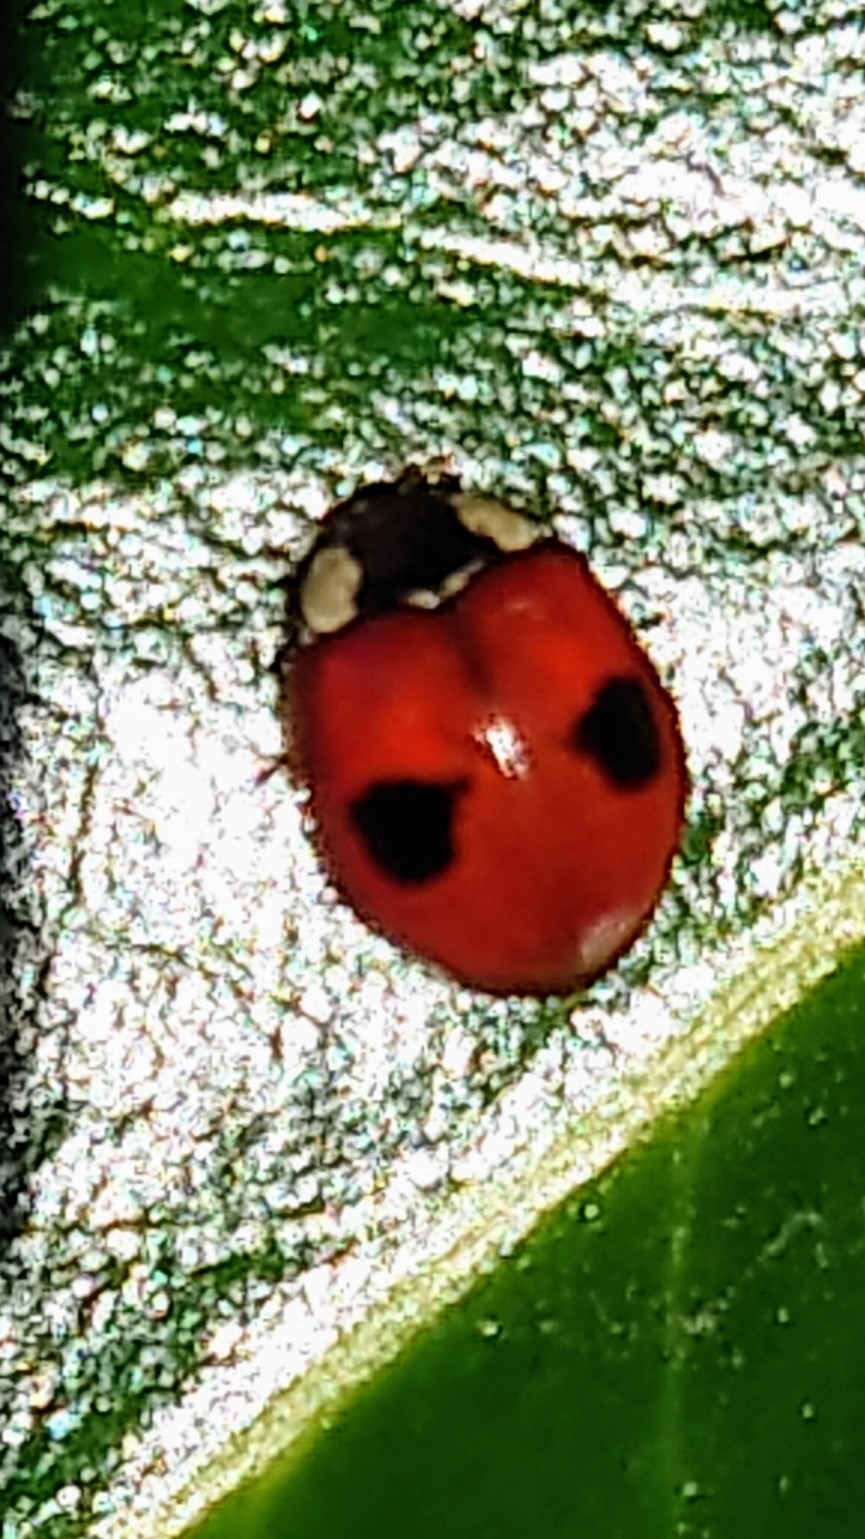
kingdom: Animalia
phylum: Arthropoda
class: Insecta
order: Coleoptera
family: Coccinellidae
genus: Adalia
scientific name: Adalia bipunctata
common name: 2-spot ladybird
